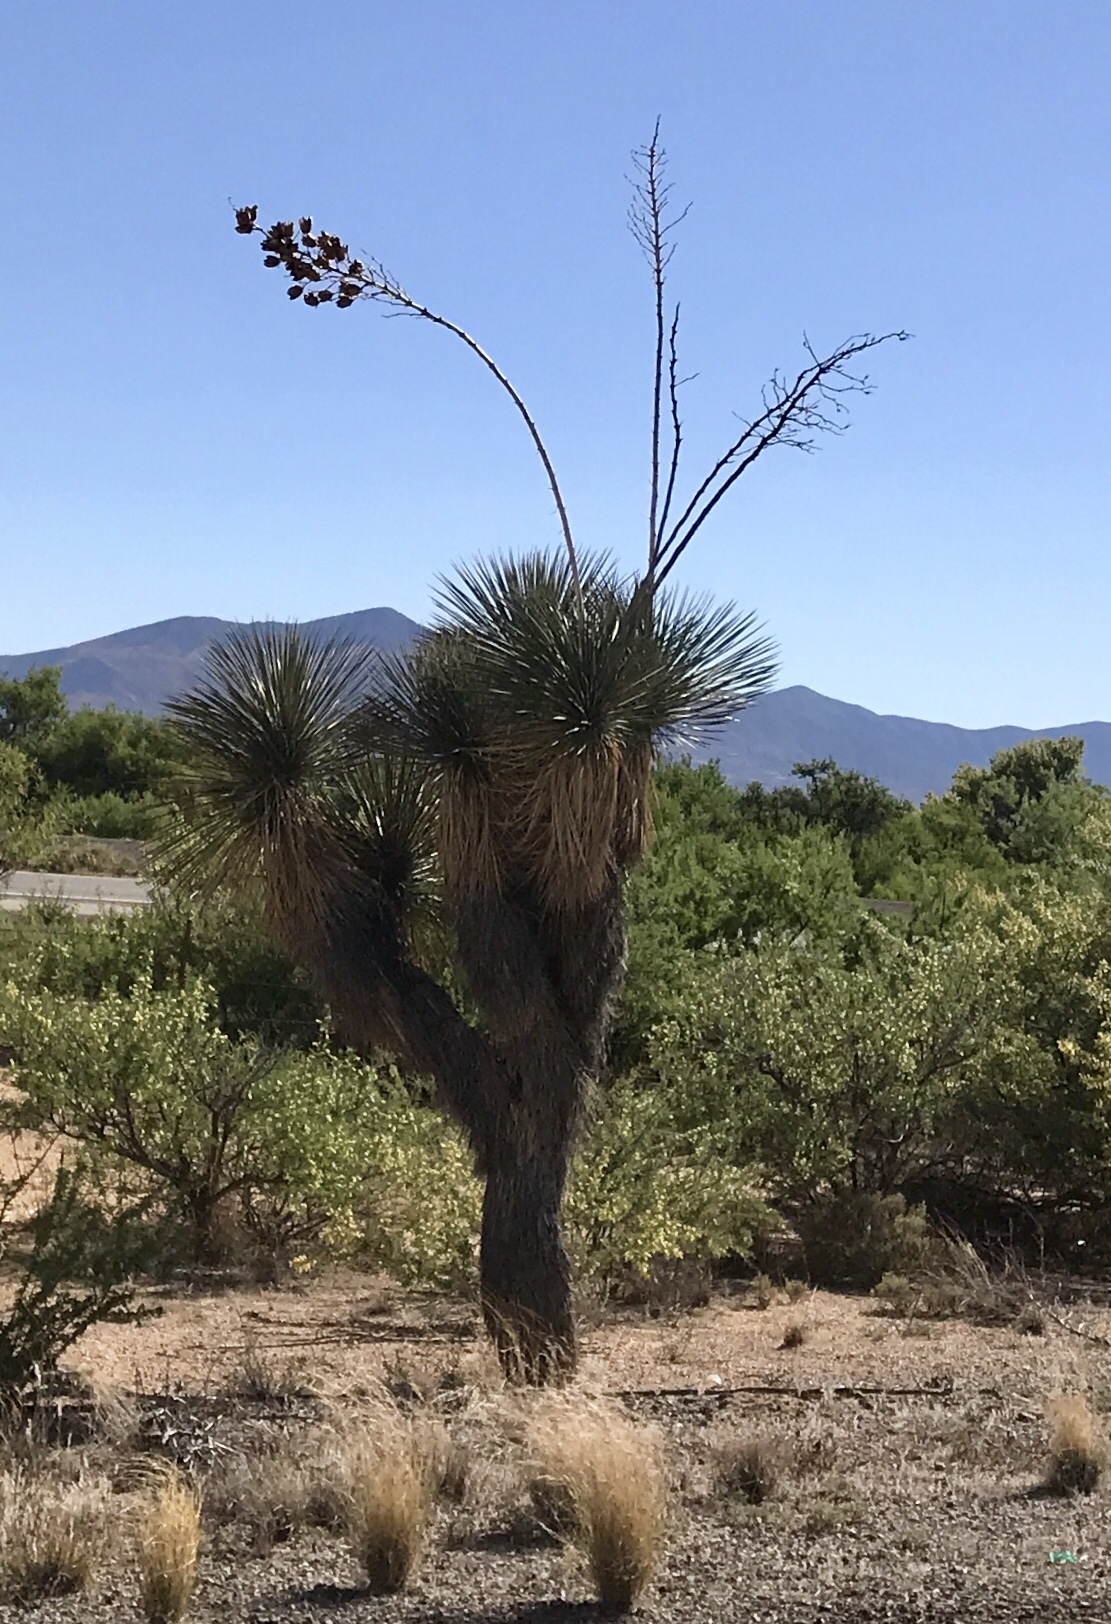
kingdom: Plantae
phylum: Tracheophyta
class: Liliopsida
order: Asparagales
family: Asparagaceae
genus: Yucca
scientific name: Yucca elata
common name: Palmella
